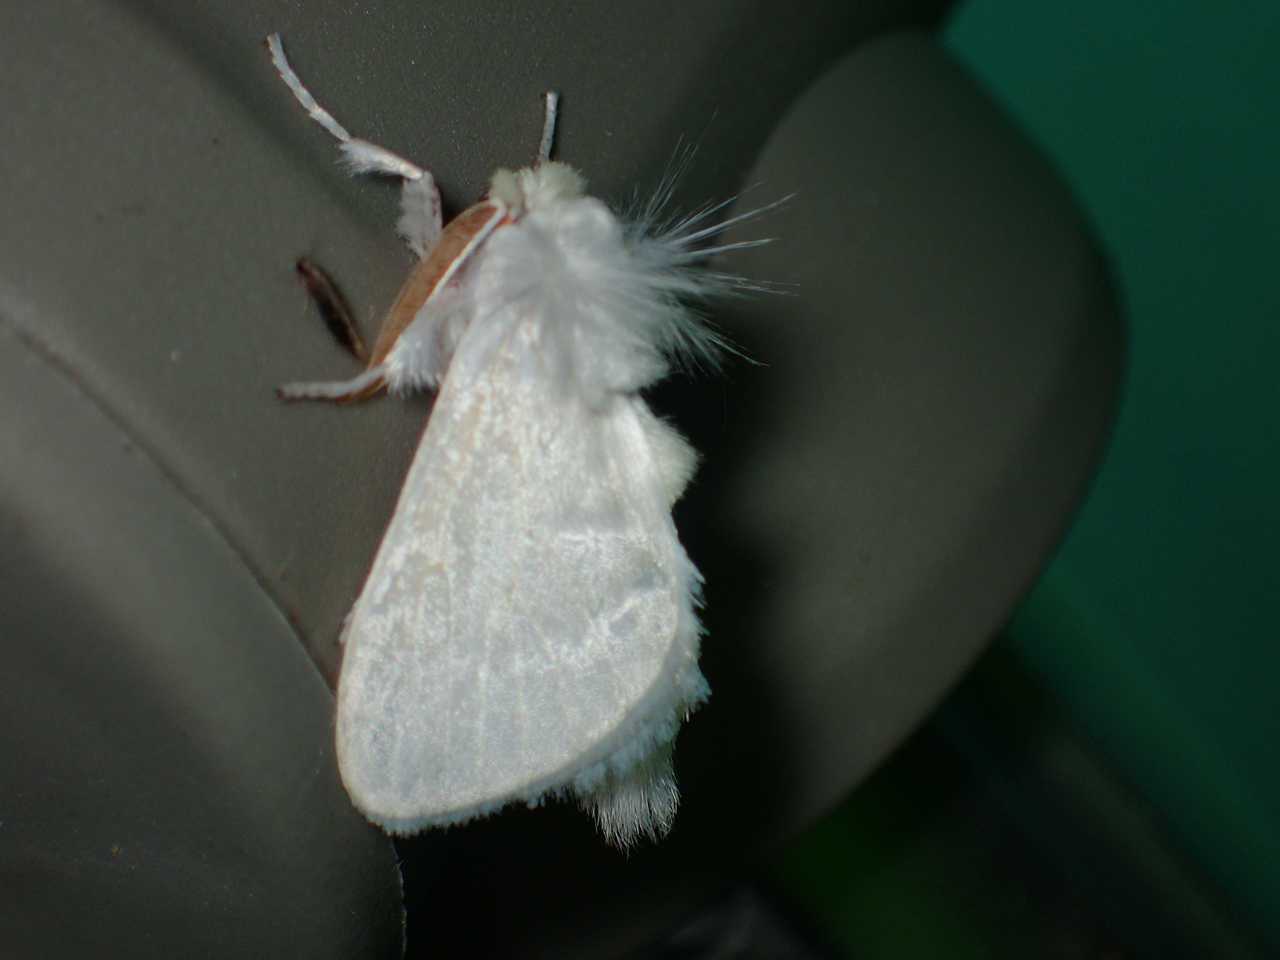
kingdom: Animalia
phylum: Arthropoda
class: Insecta
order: Lepidoptera
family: Megalopygidae
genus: Norape
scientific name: Norape cretata
